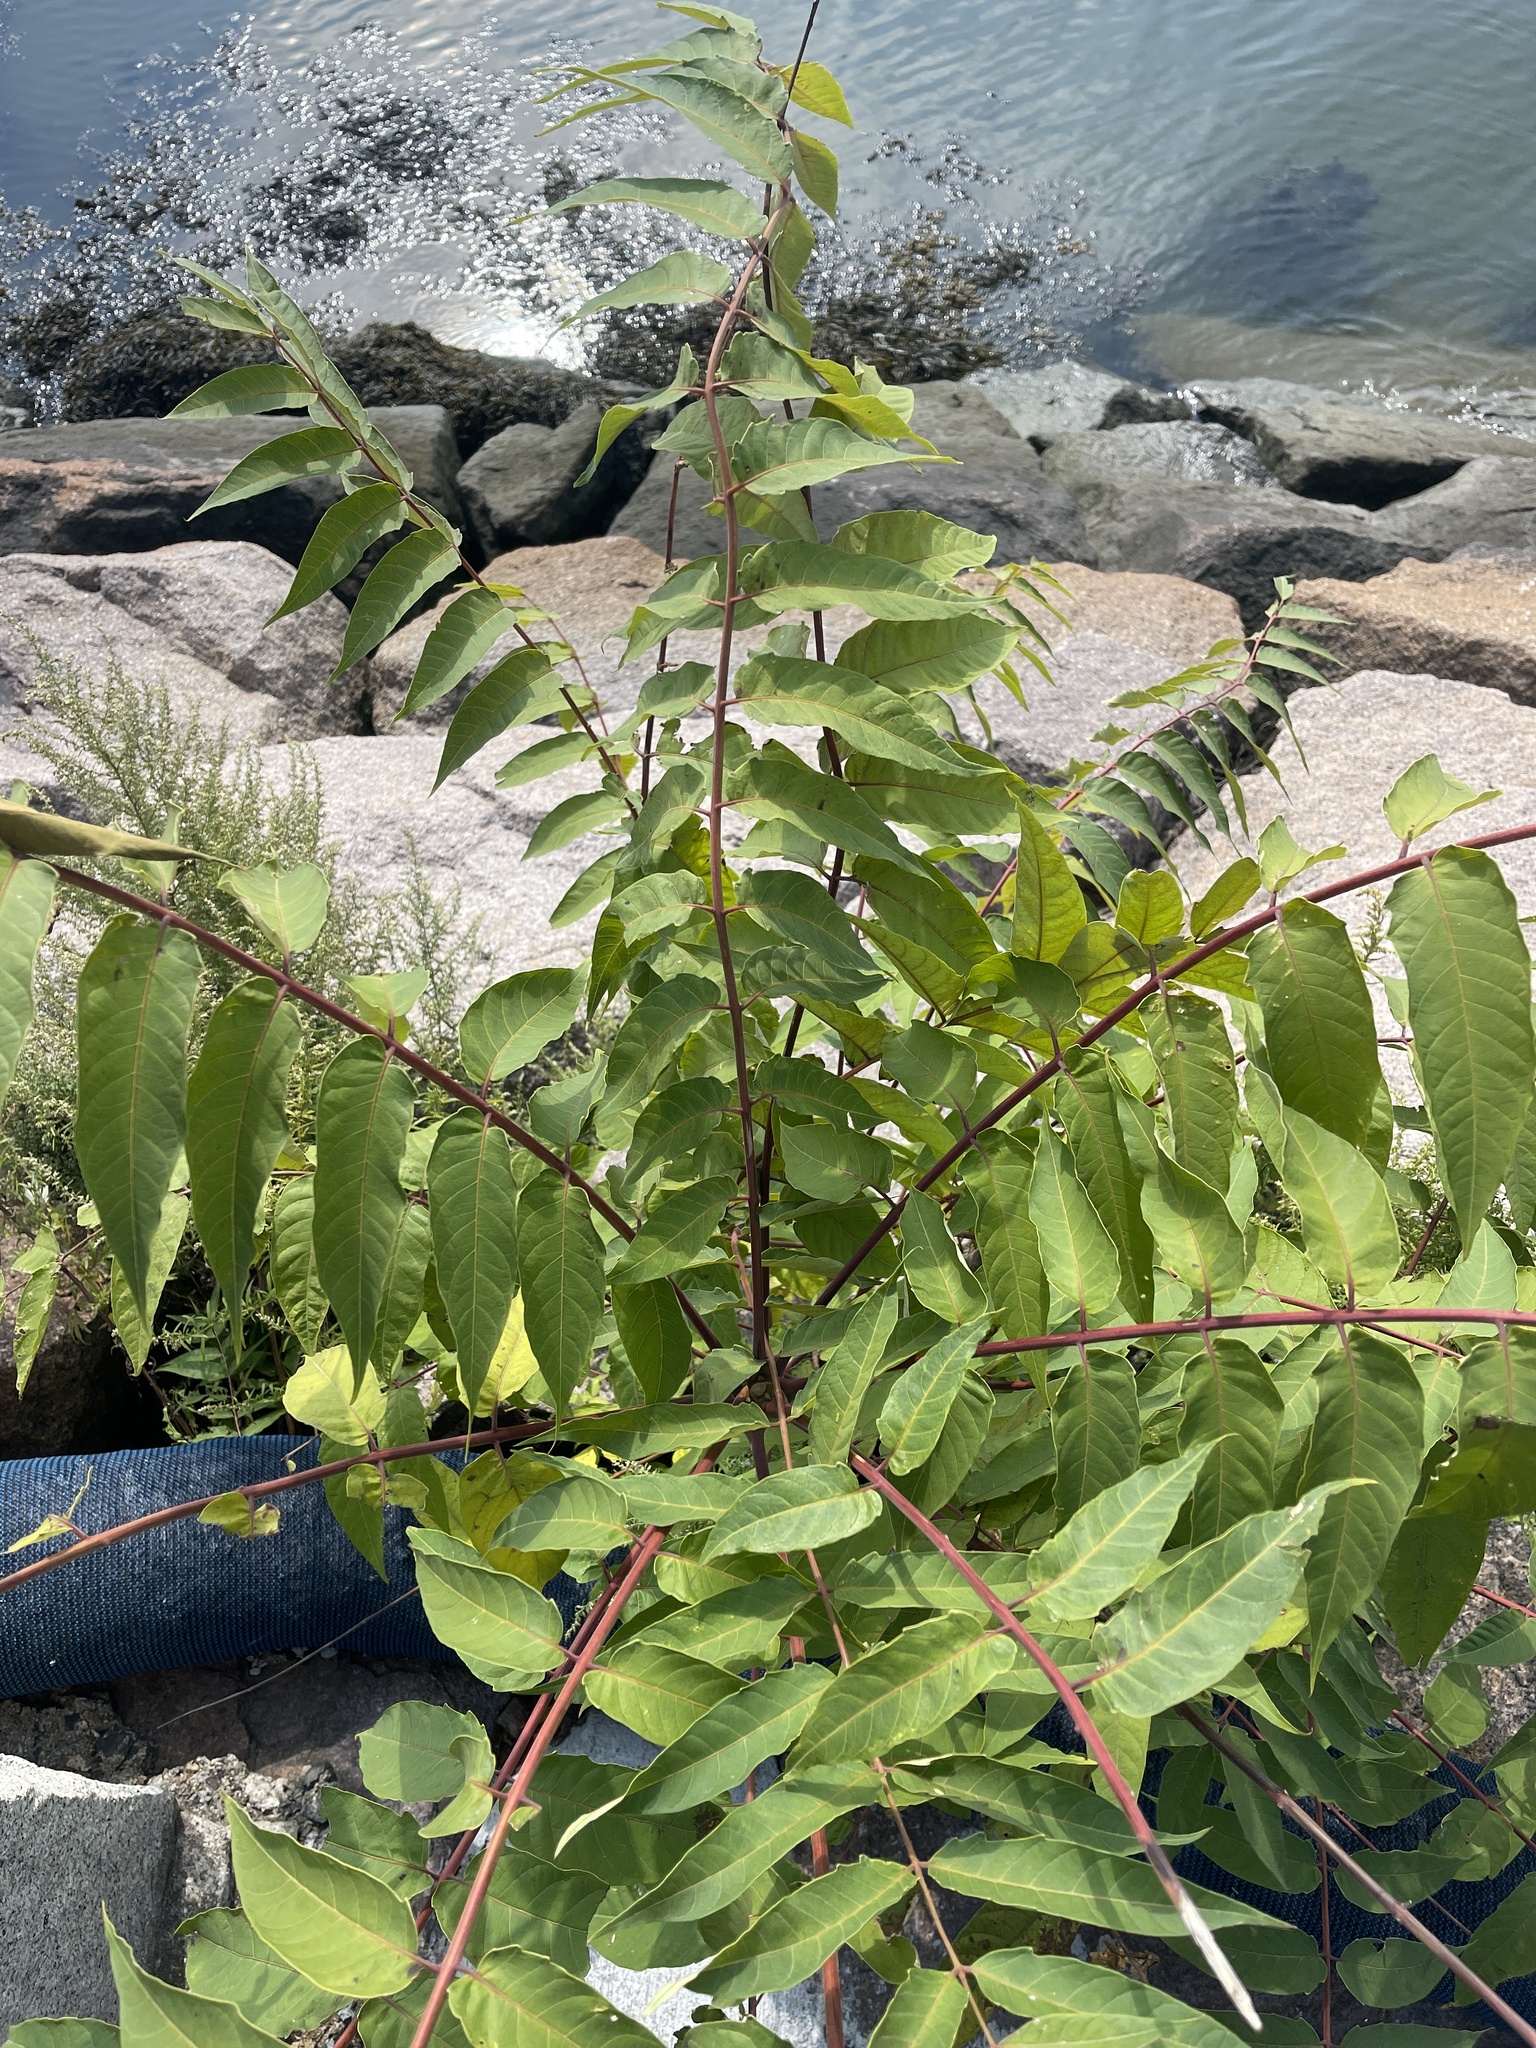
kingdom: Plantae
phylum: Tracheophyta
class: Magnoliopsida
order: Sapindales
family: Simaroubaceae
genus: Ailanthus
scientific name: Ailanthus altissima
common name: Tree-of-heaven
